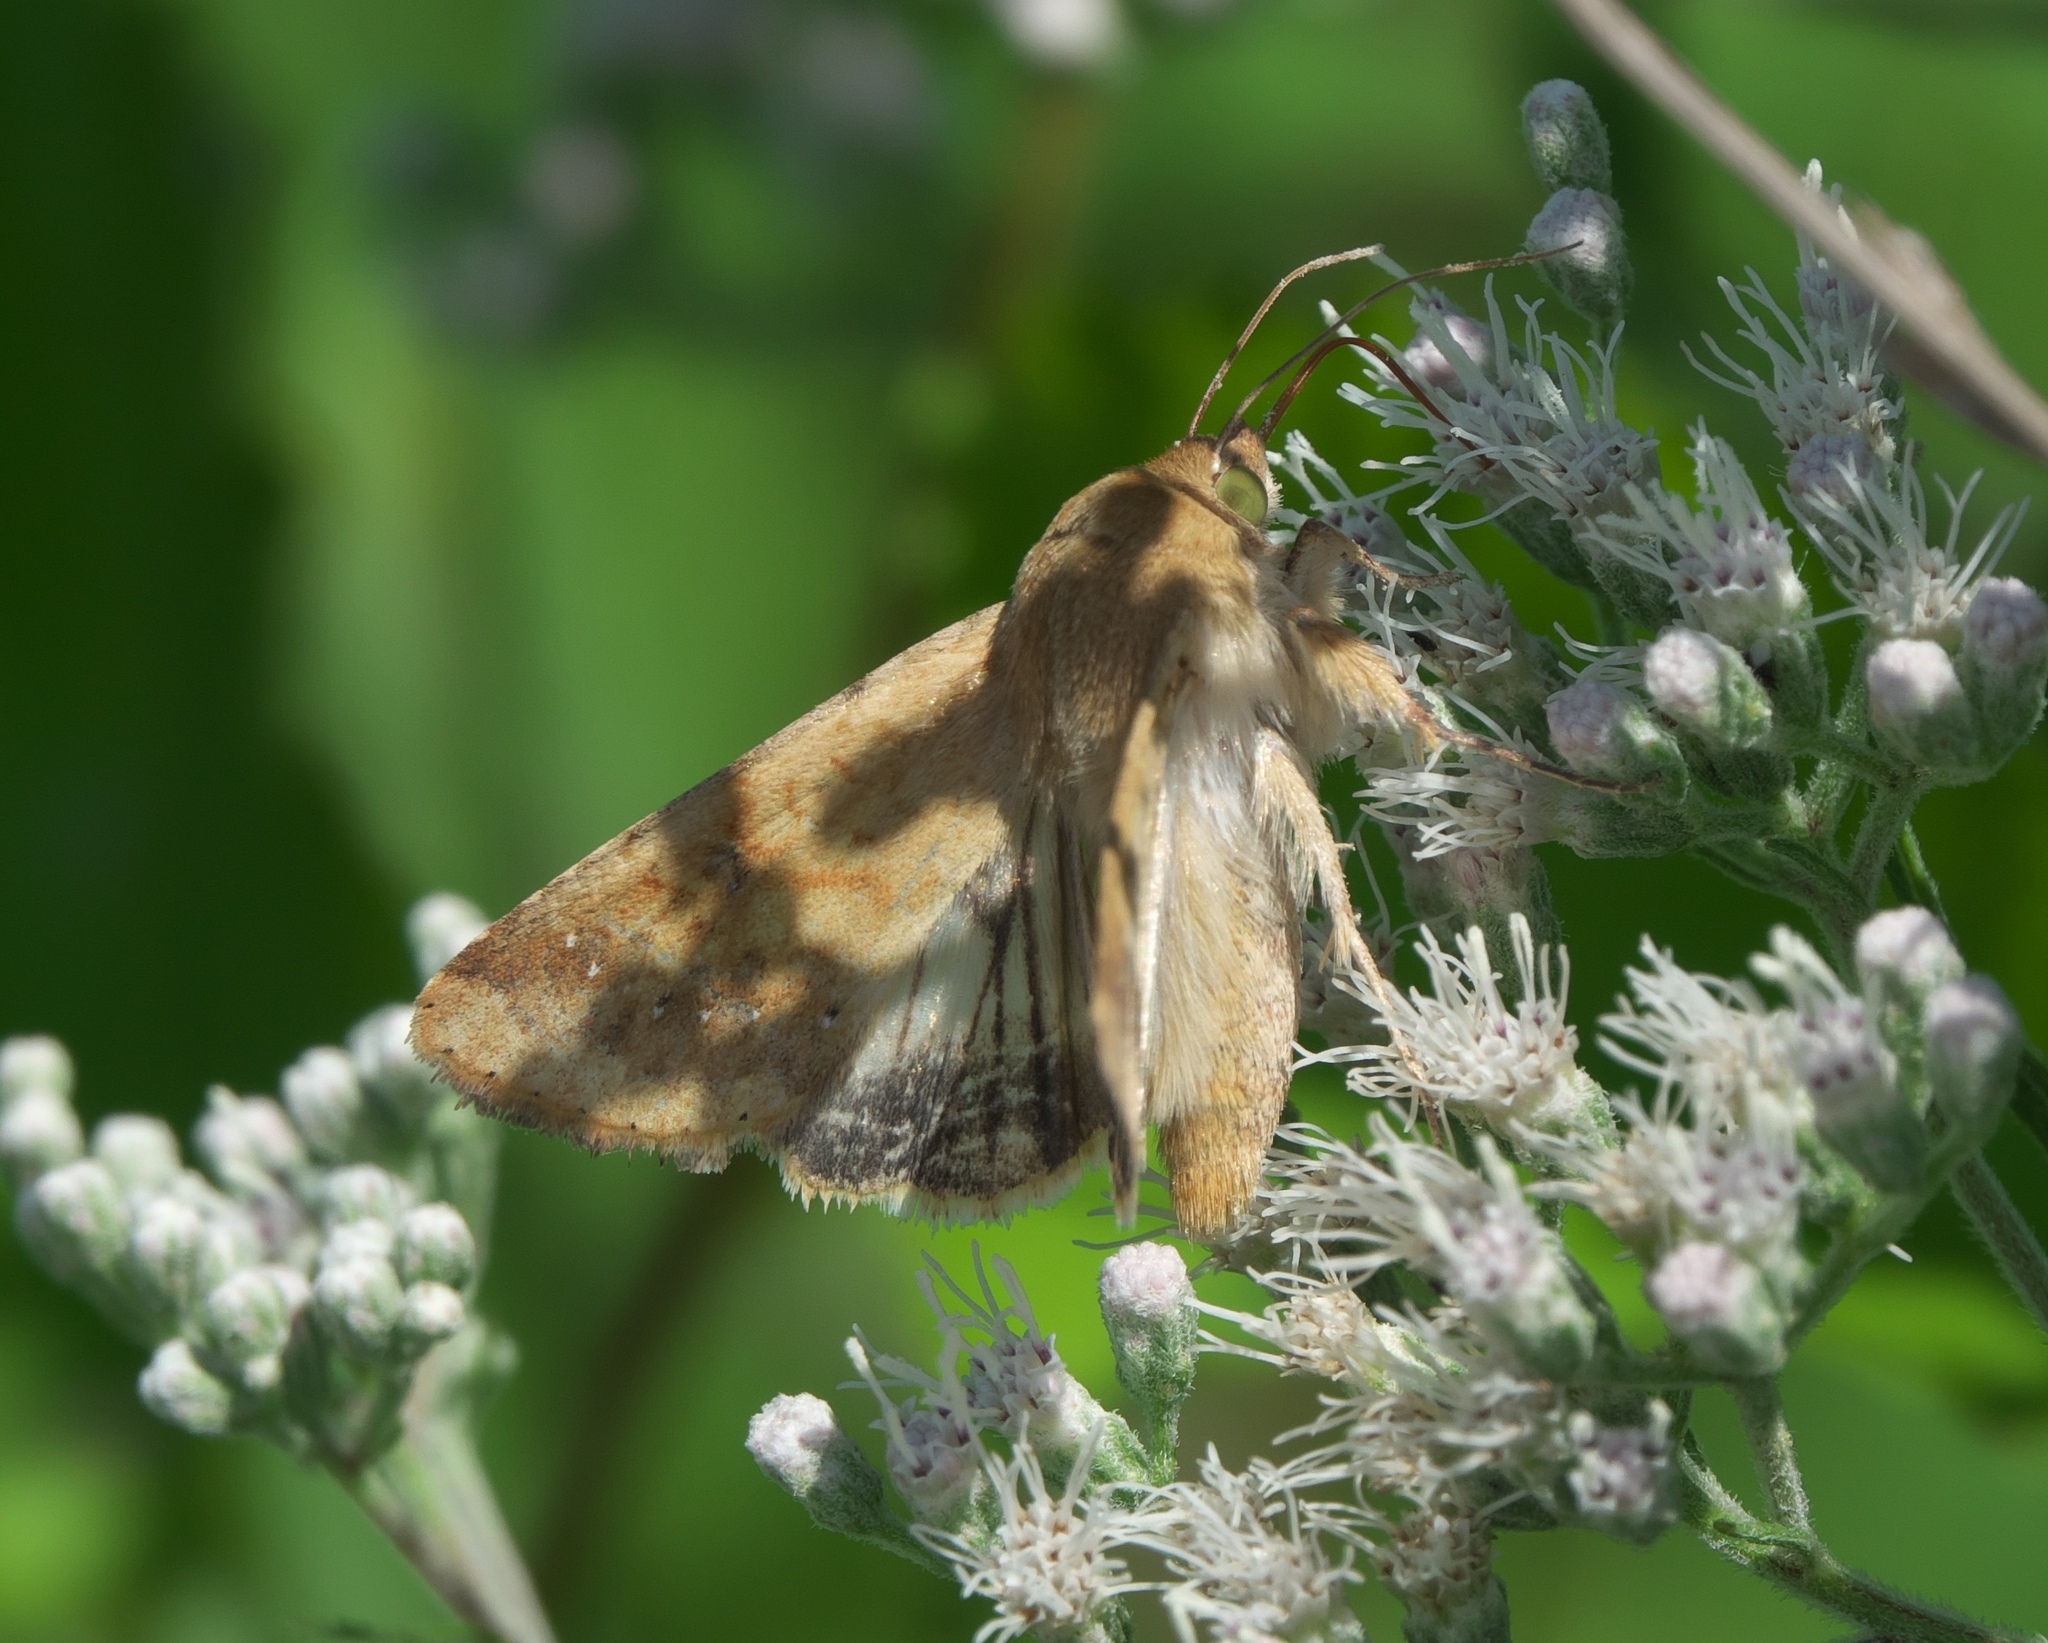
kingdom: Animalia
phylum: Arthropoda
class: Insecta
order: Lepidoptera
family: Noctuidae
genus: Helicoverpa
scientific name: Helicoverpa zea
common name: Bollworm
